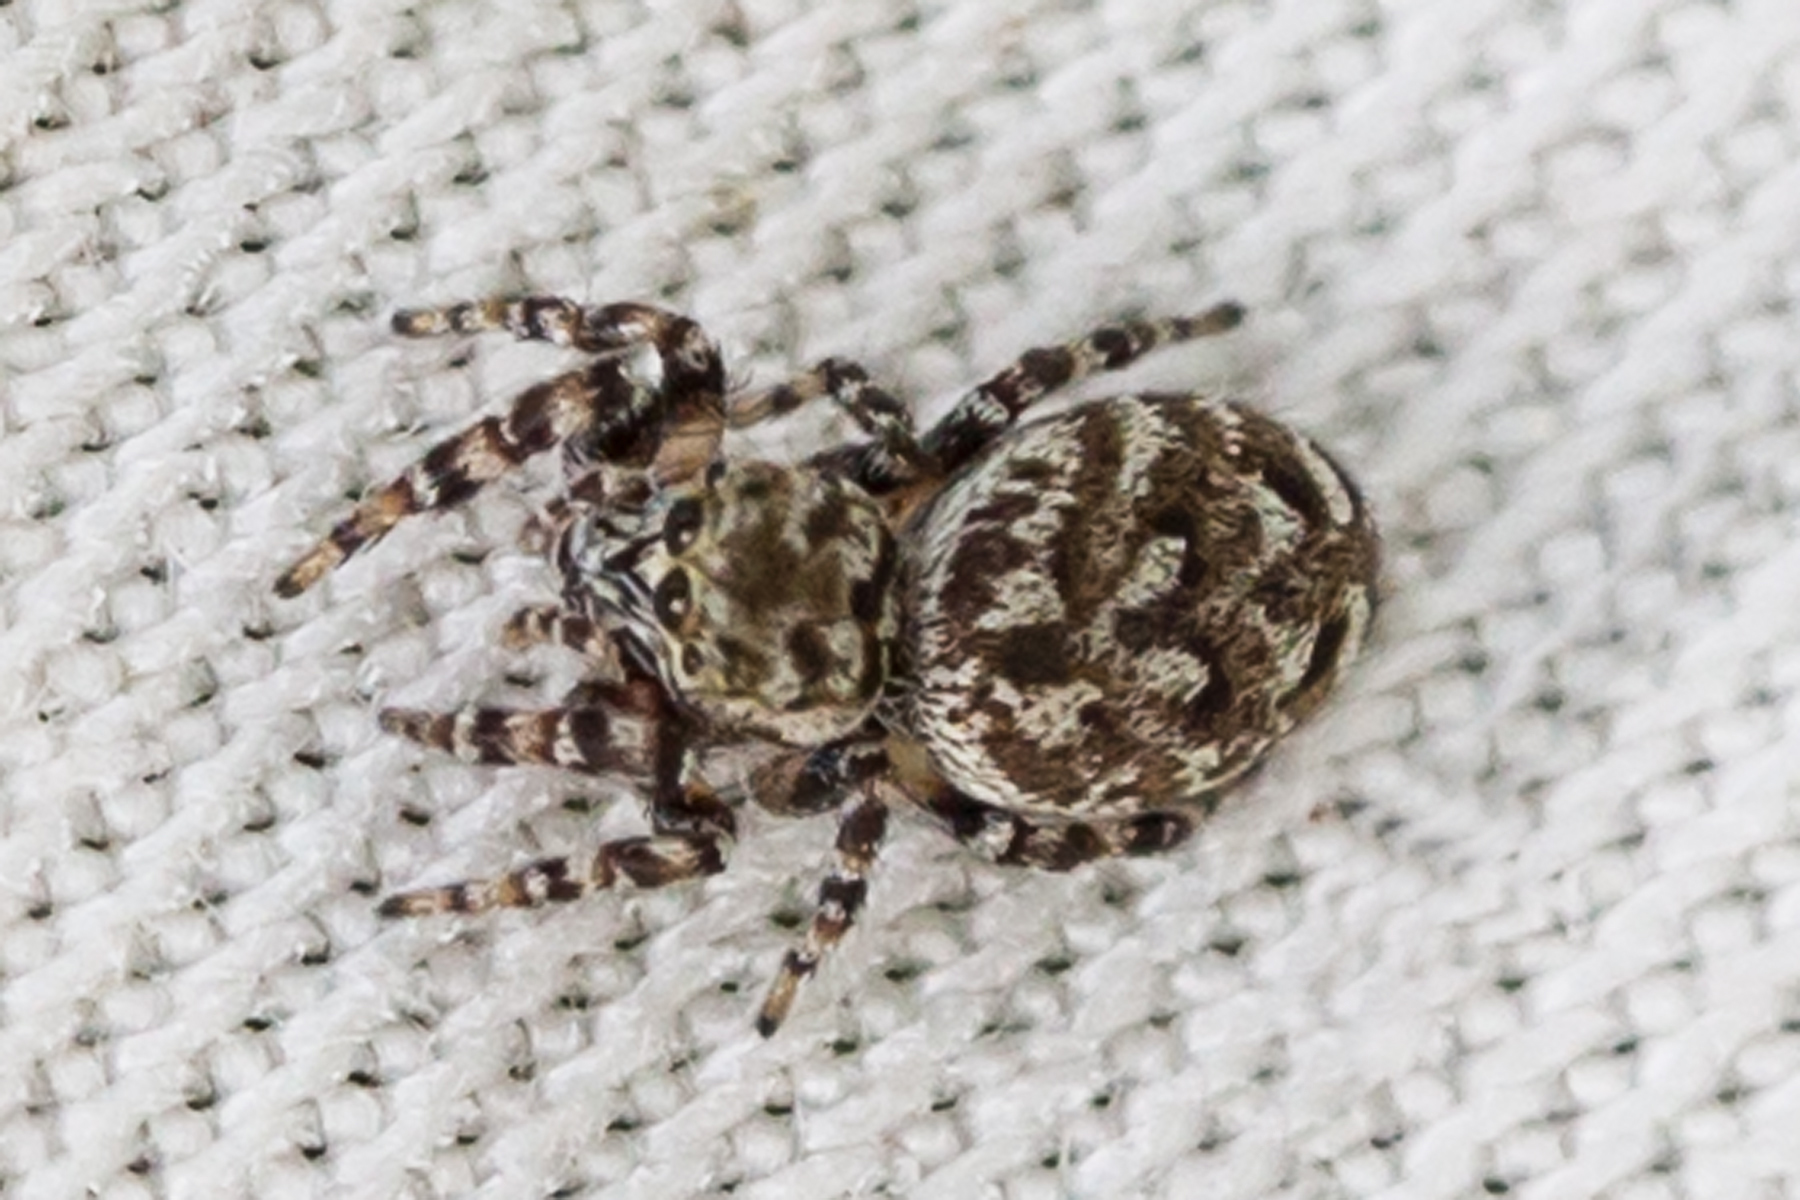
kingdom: Animalia
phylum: Arthropoda
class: Arachnida
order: Araneae
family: Salticidae
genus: Pelegrina
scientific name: Pelegrina galathea
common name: Jumping spiders
